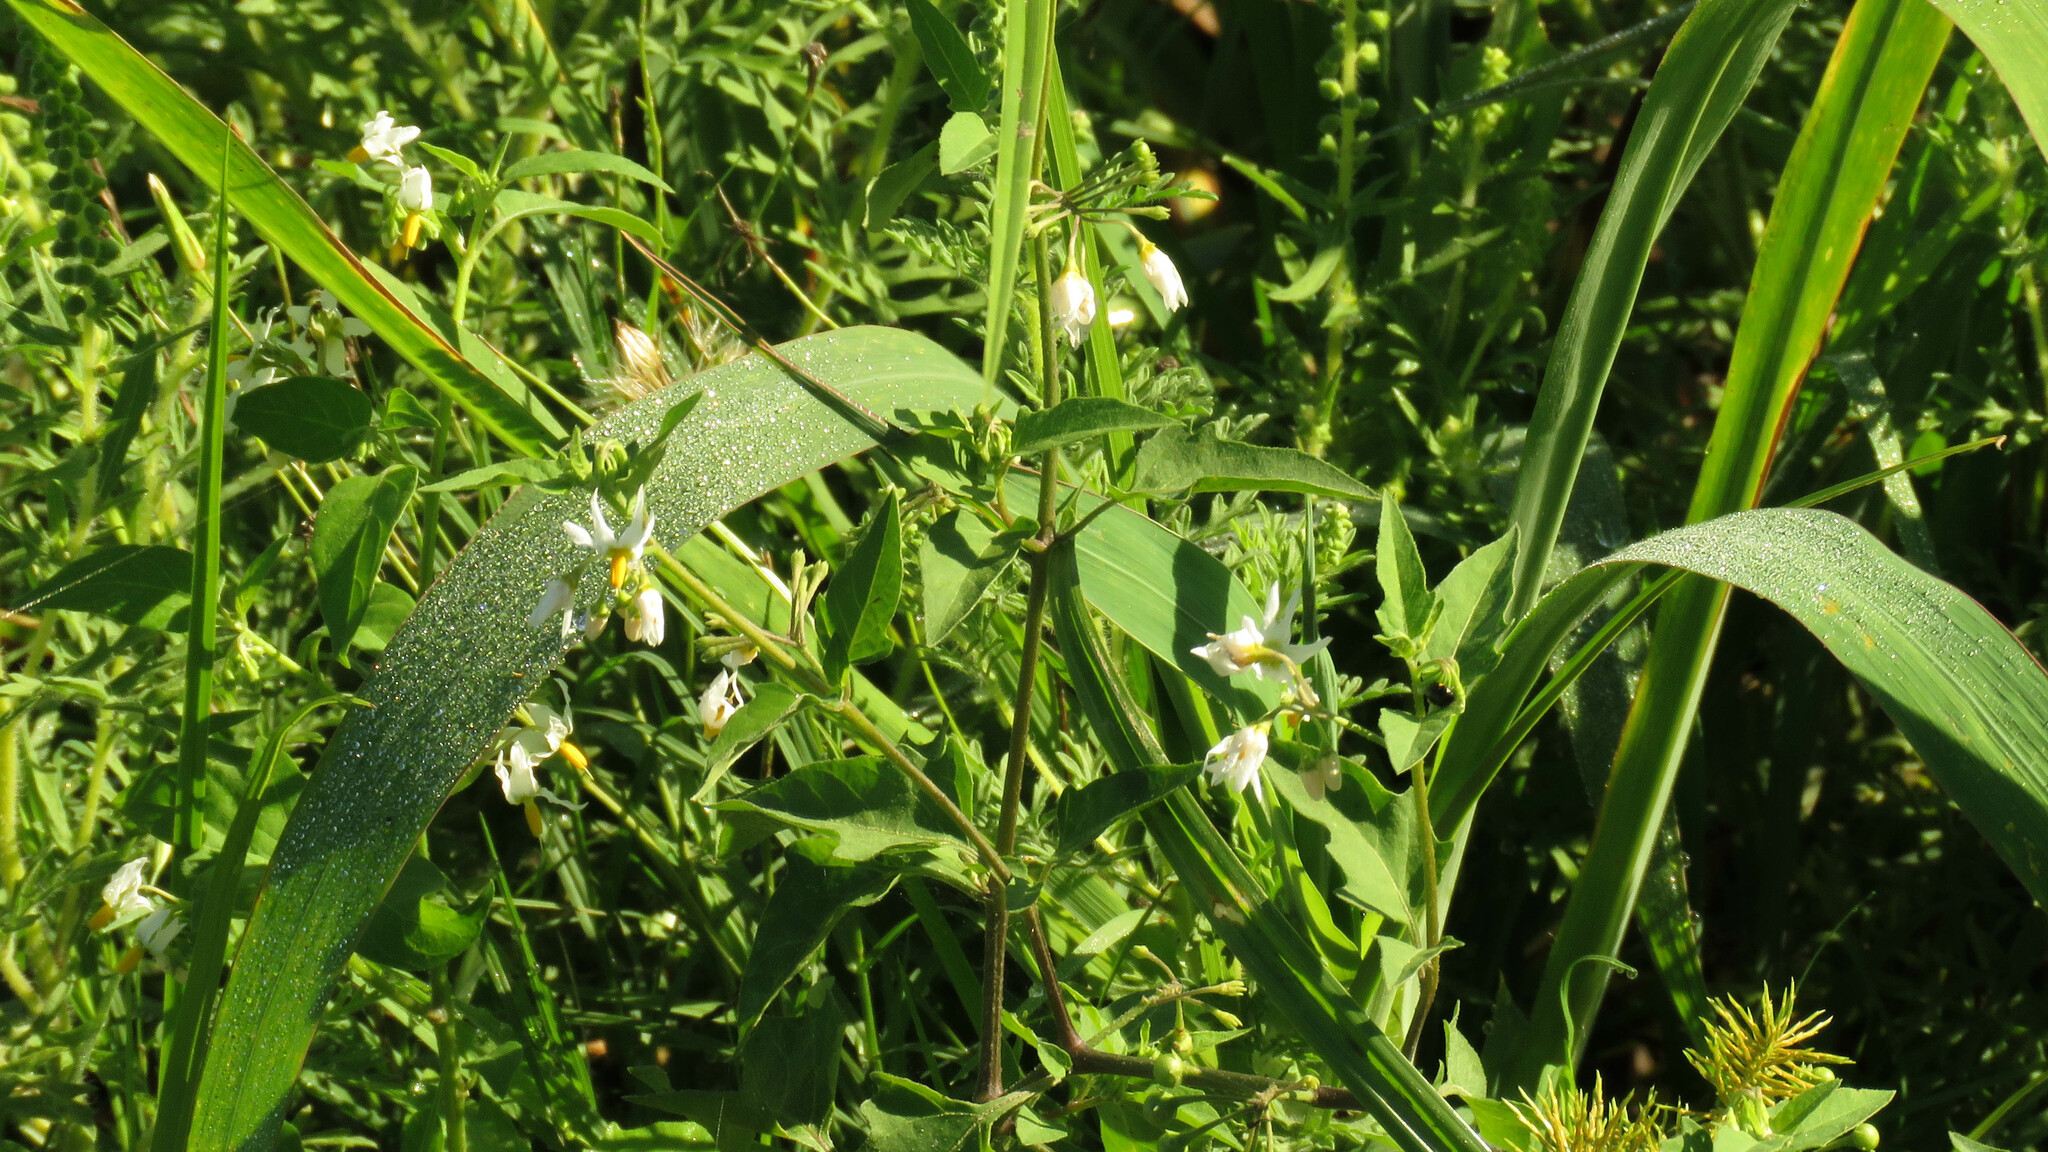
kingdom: Plantae
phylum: Tracheophyta
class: Magnoliopsida
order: Solanales
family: Solanaceae
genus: Solanum
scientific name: Solanum pilcomayense
